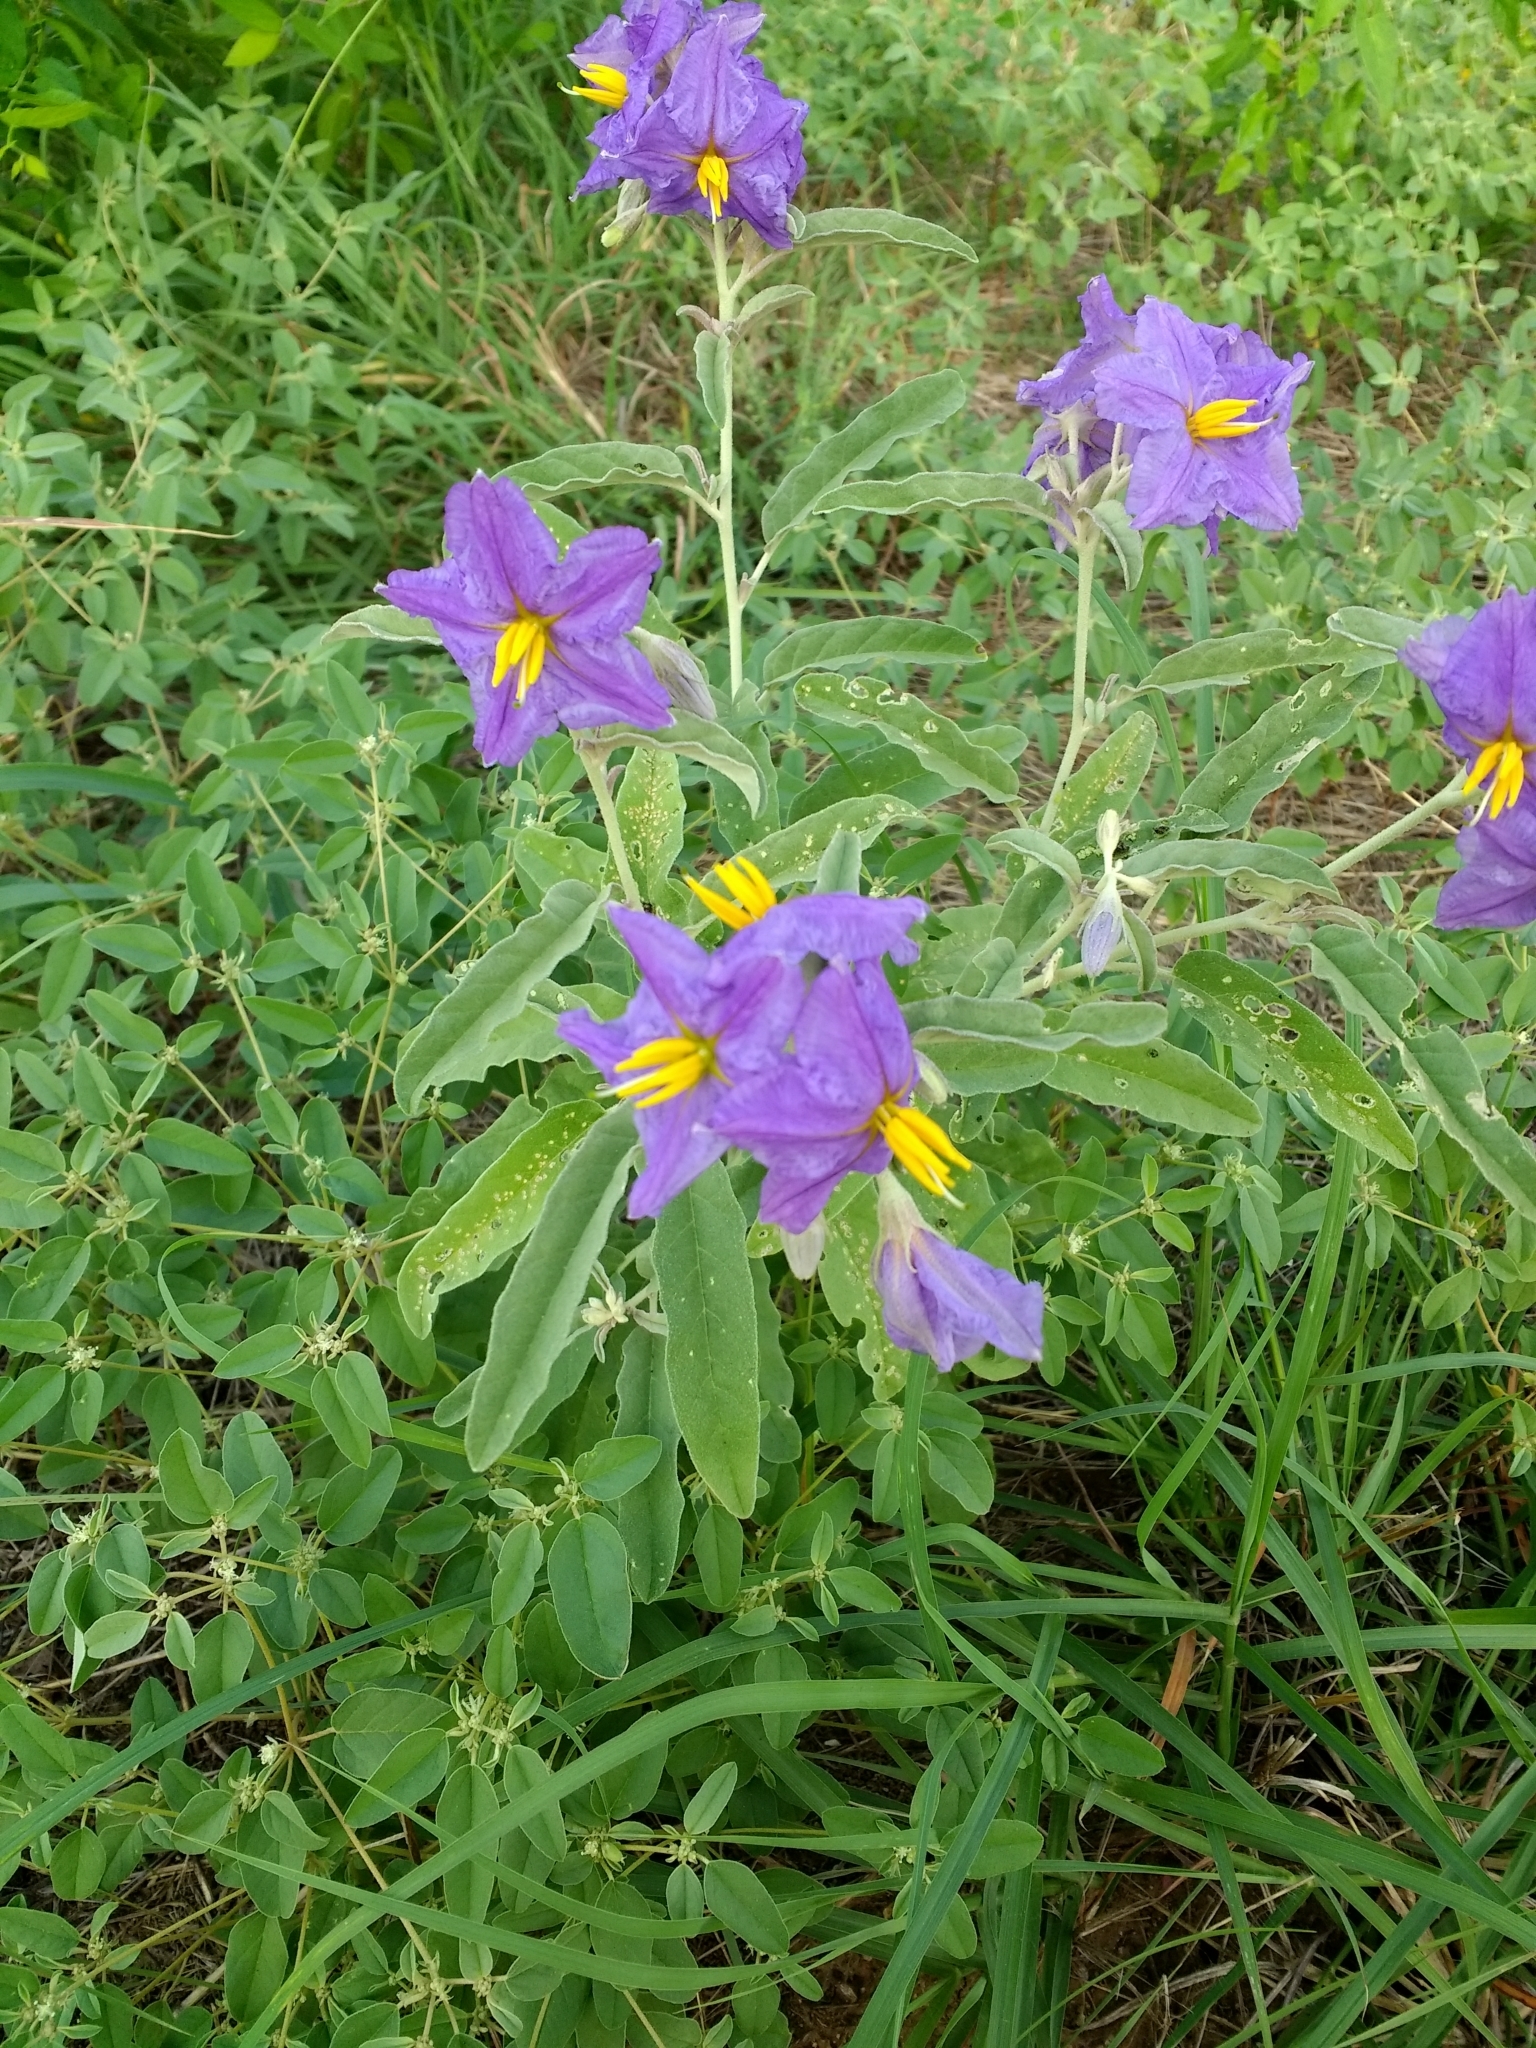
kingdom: Plantae
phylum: Tracheophyta
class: Magnoliopsida
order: Solanales
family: Solanaceae
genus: Solanum
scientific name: Solanum elaeagnifolium
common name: Silverleaf nightshade
